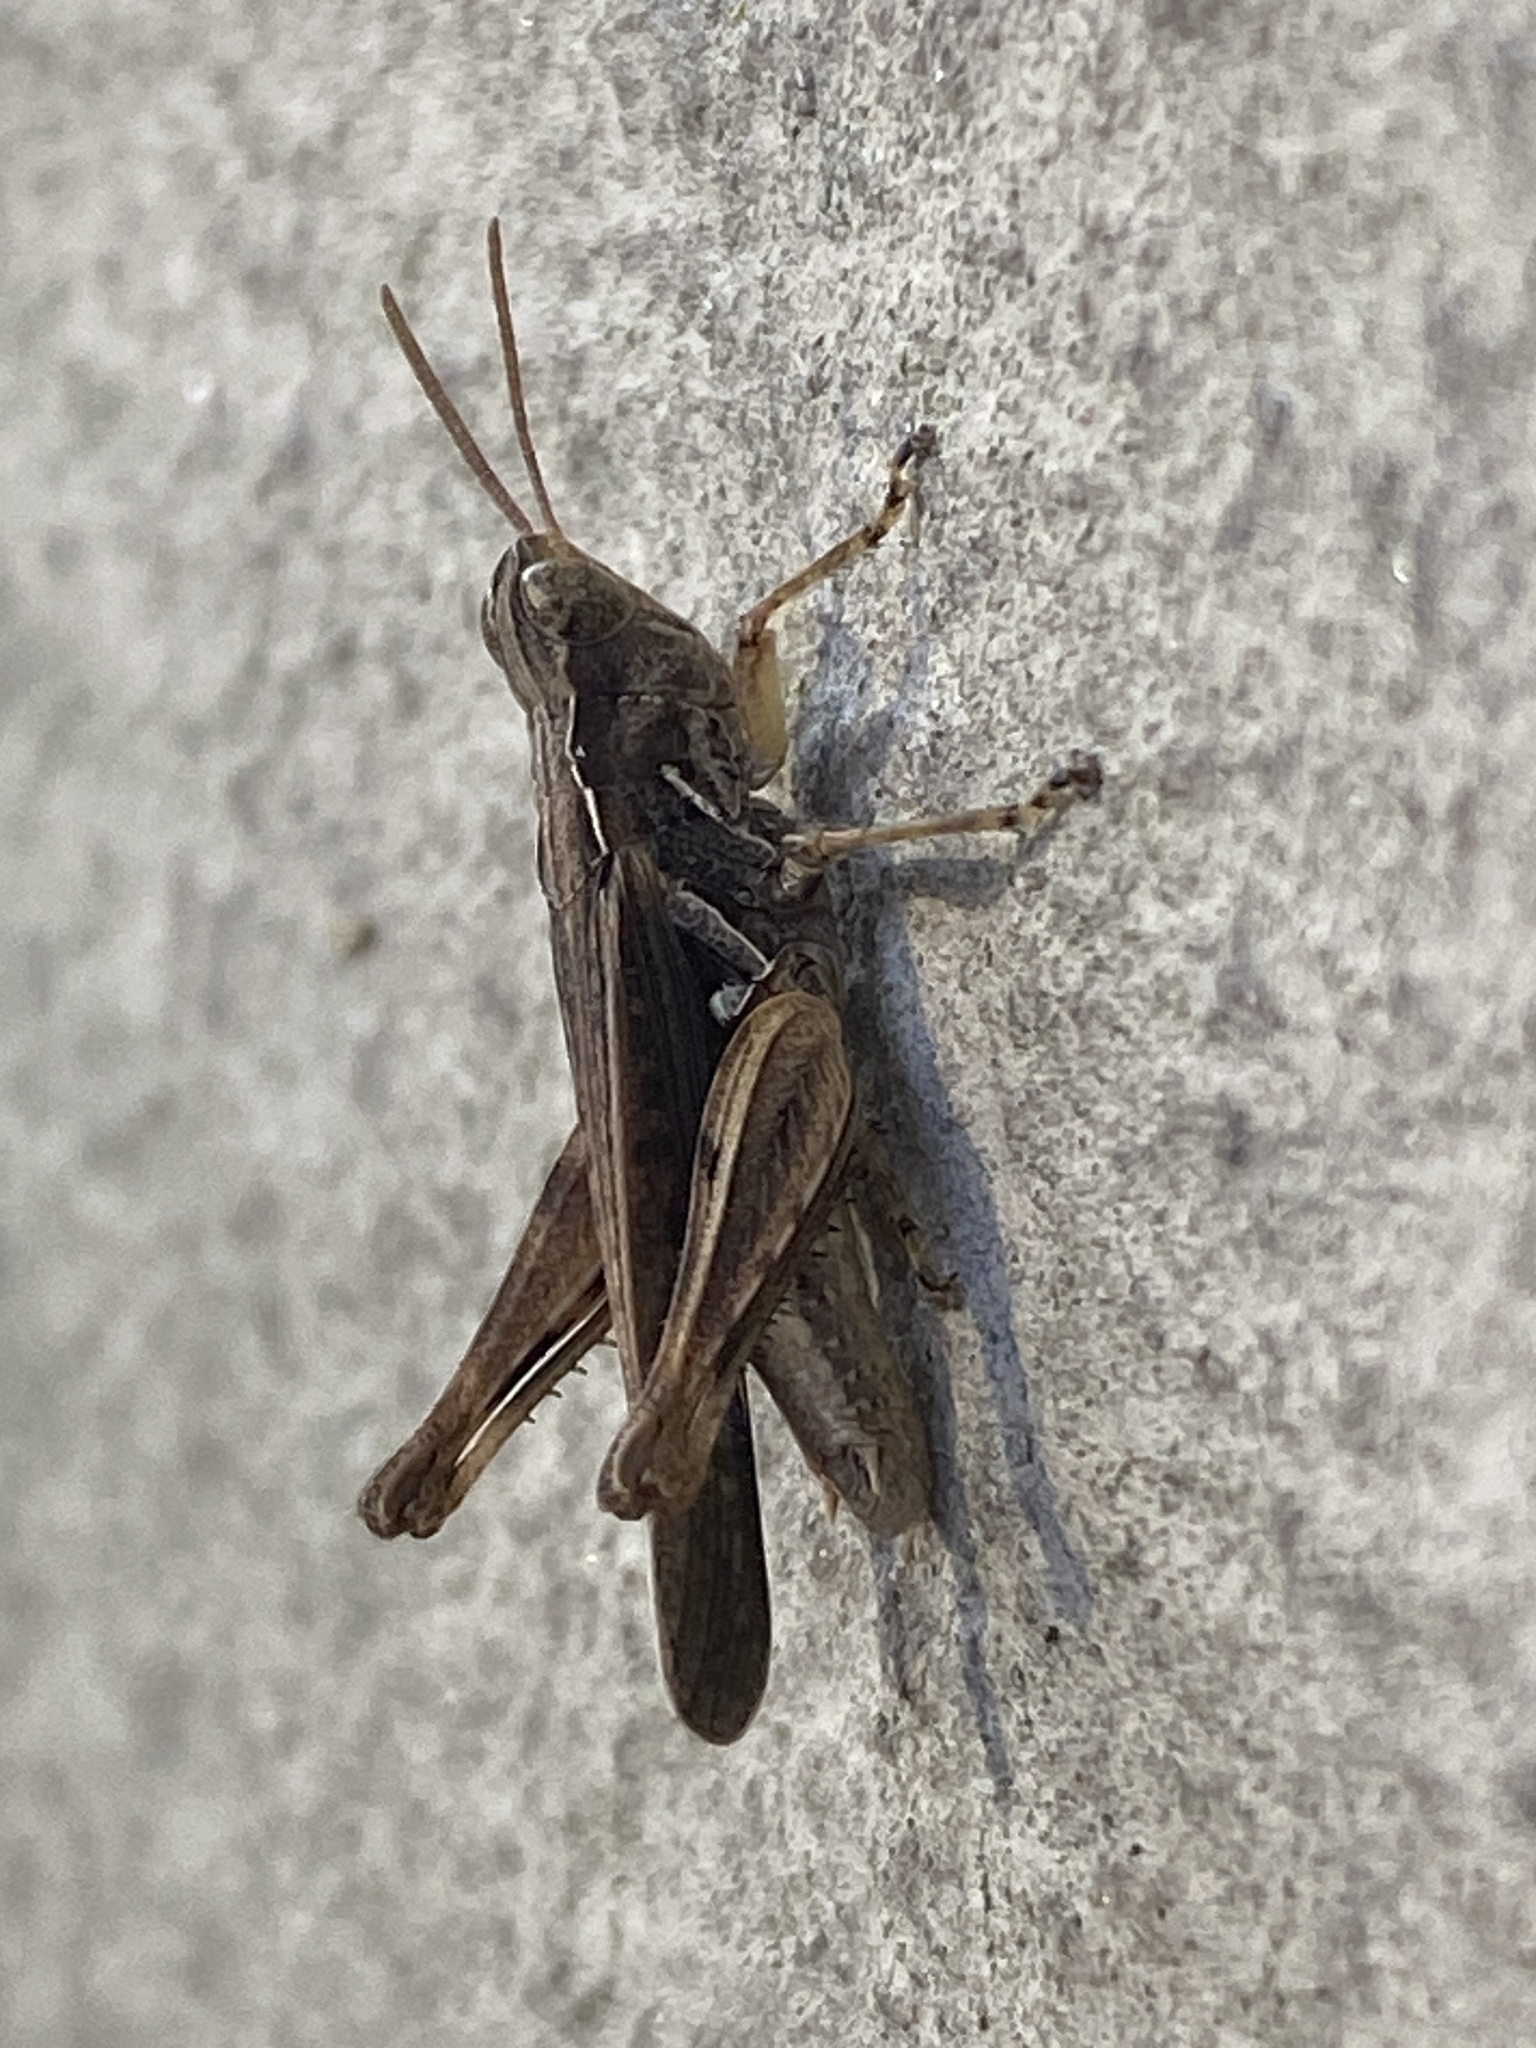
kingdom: Animalia
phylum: Arthropoda
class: Insecta
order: Orthoptera
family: Acrididae
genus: Orphulella
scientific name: Orphulella punctata
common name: Slant-faced grasshopper
